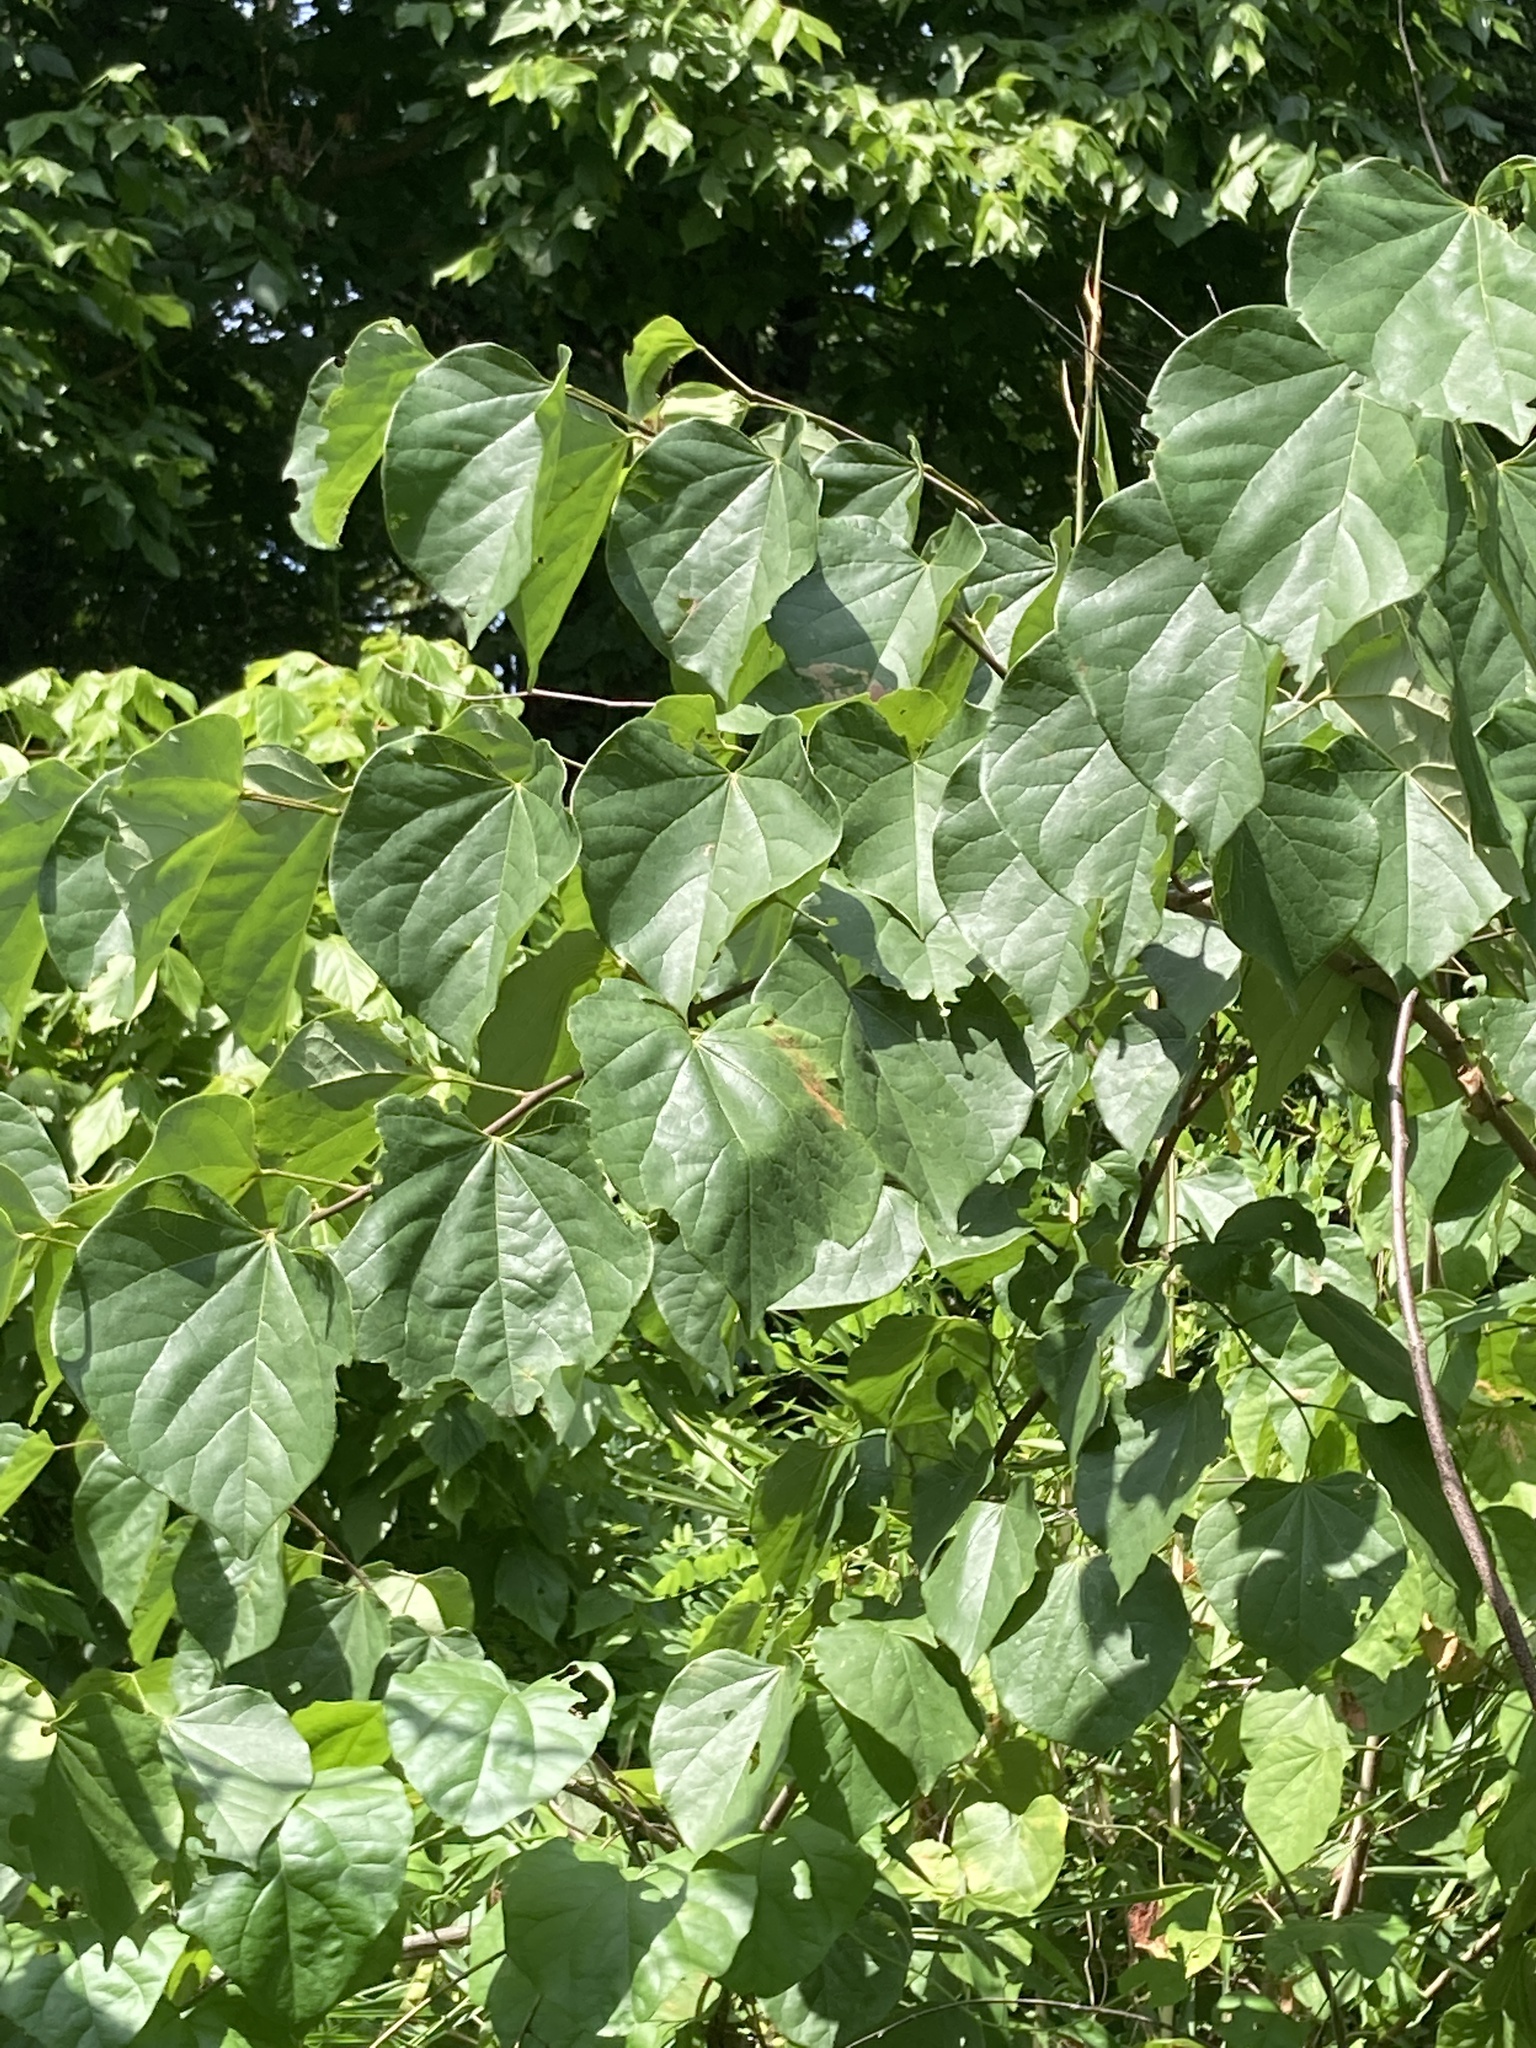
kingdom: Plantae
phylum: Tracheophyta
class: Magnoliopsida
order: Fabales
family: Fabaceae
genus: Cercis
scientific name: Cercis canadensis
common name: Eastern redbud
